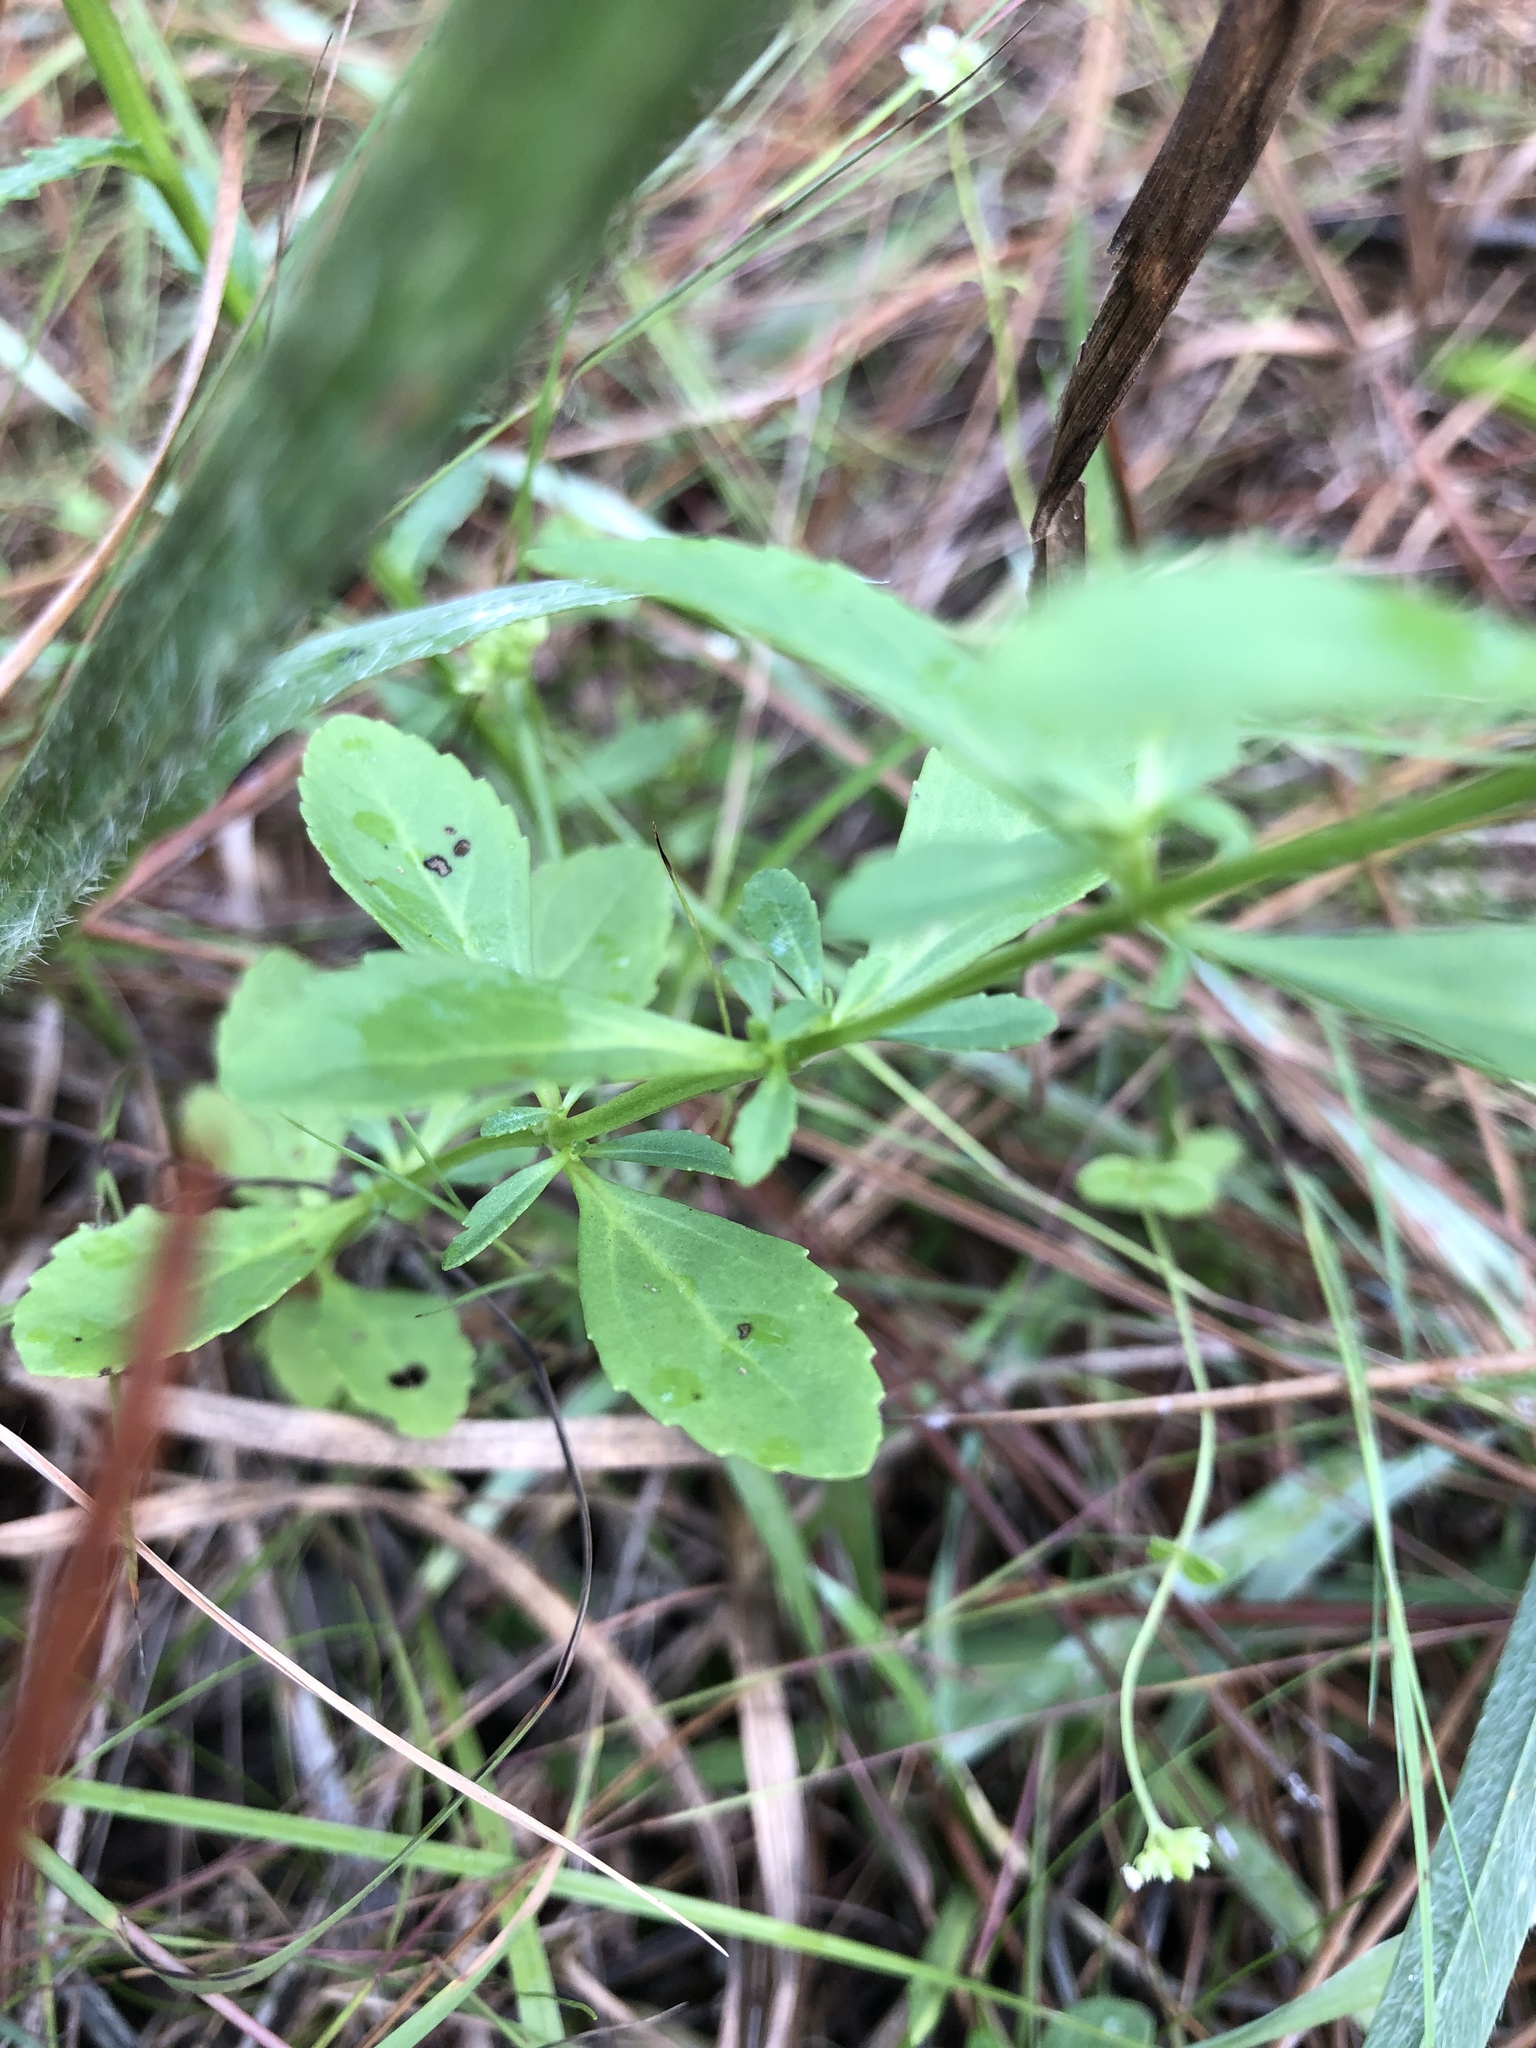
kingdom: Plantae
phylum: Tracheophyta
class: Magnoliopsida
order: Lamiales
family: Plantaginaceae
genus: Mecardonia
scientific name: Mecardonia acuminata
